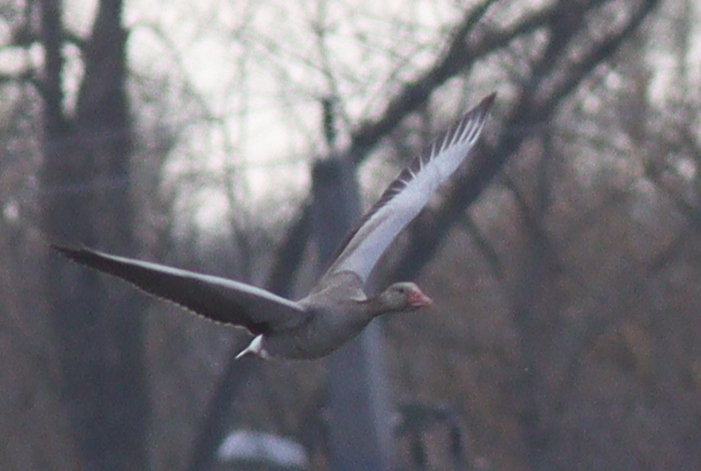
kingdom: Animalia
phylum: Chordata
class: Aves
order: Anseriformes
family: Anatidae
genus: Anser
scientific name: Anser anser
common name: Greylag goose
